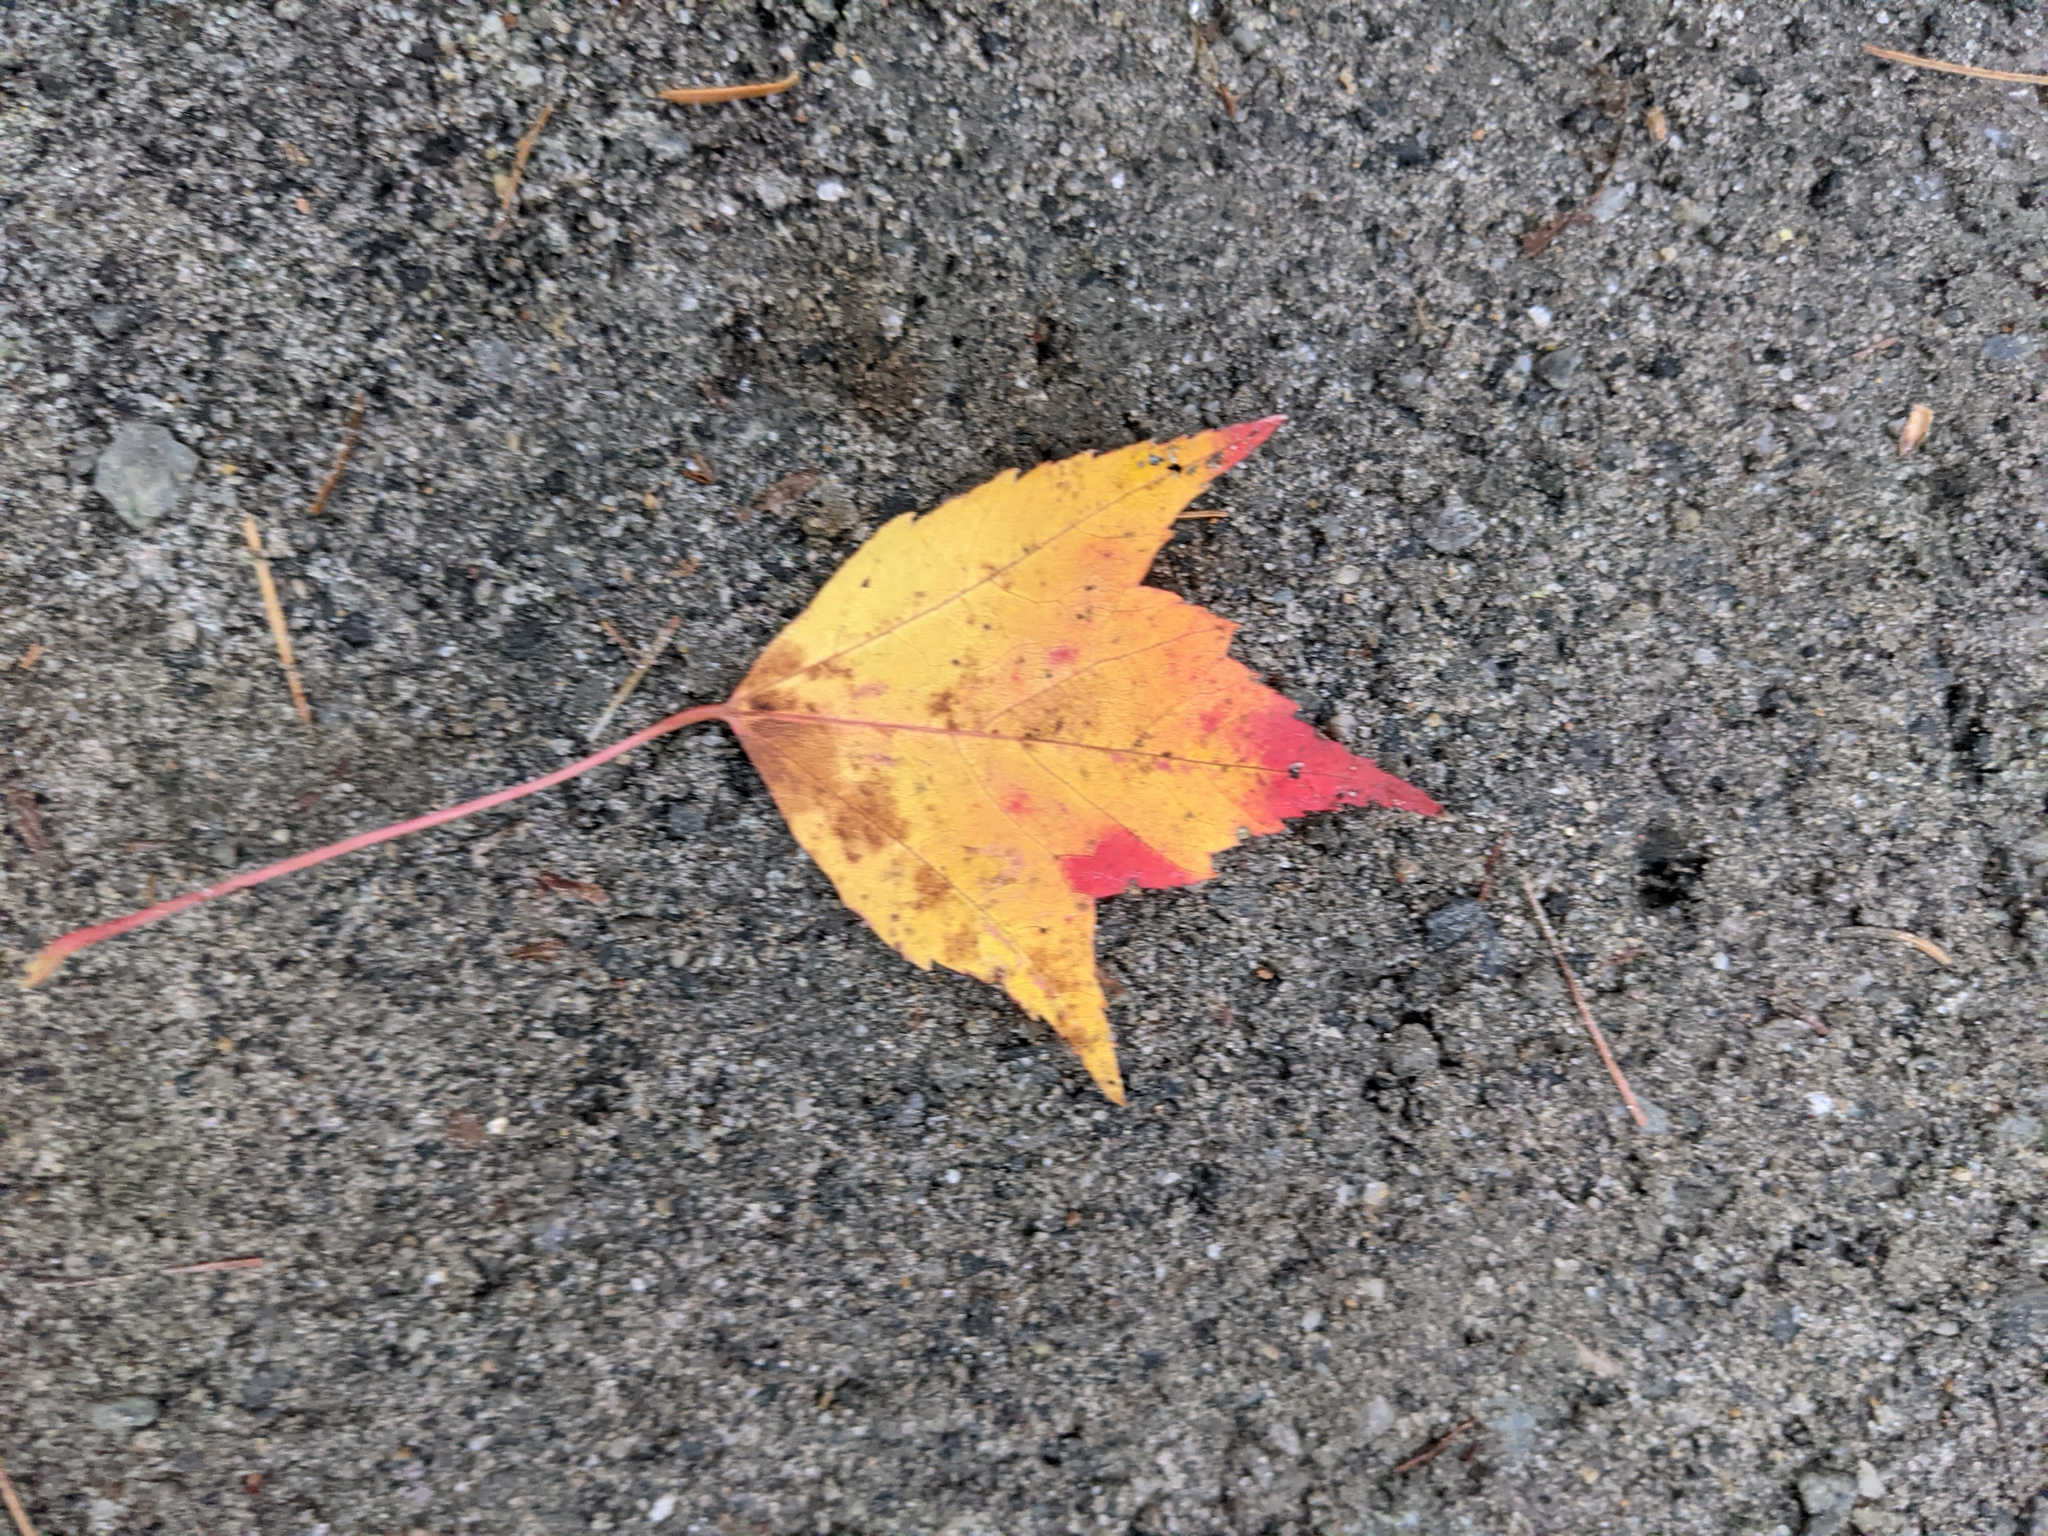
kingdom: Plantae
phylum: Tracheophyta
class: Magnoliopsida
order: Sapindales
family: Sapindaceae
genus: Acer
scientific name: Acer rubrum
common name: Red maple
